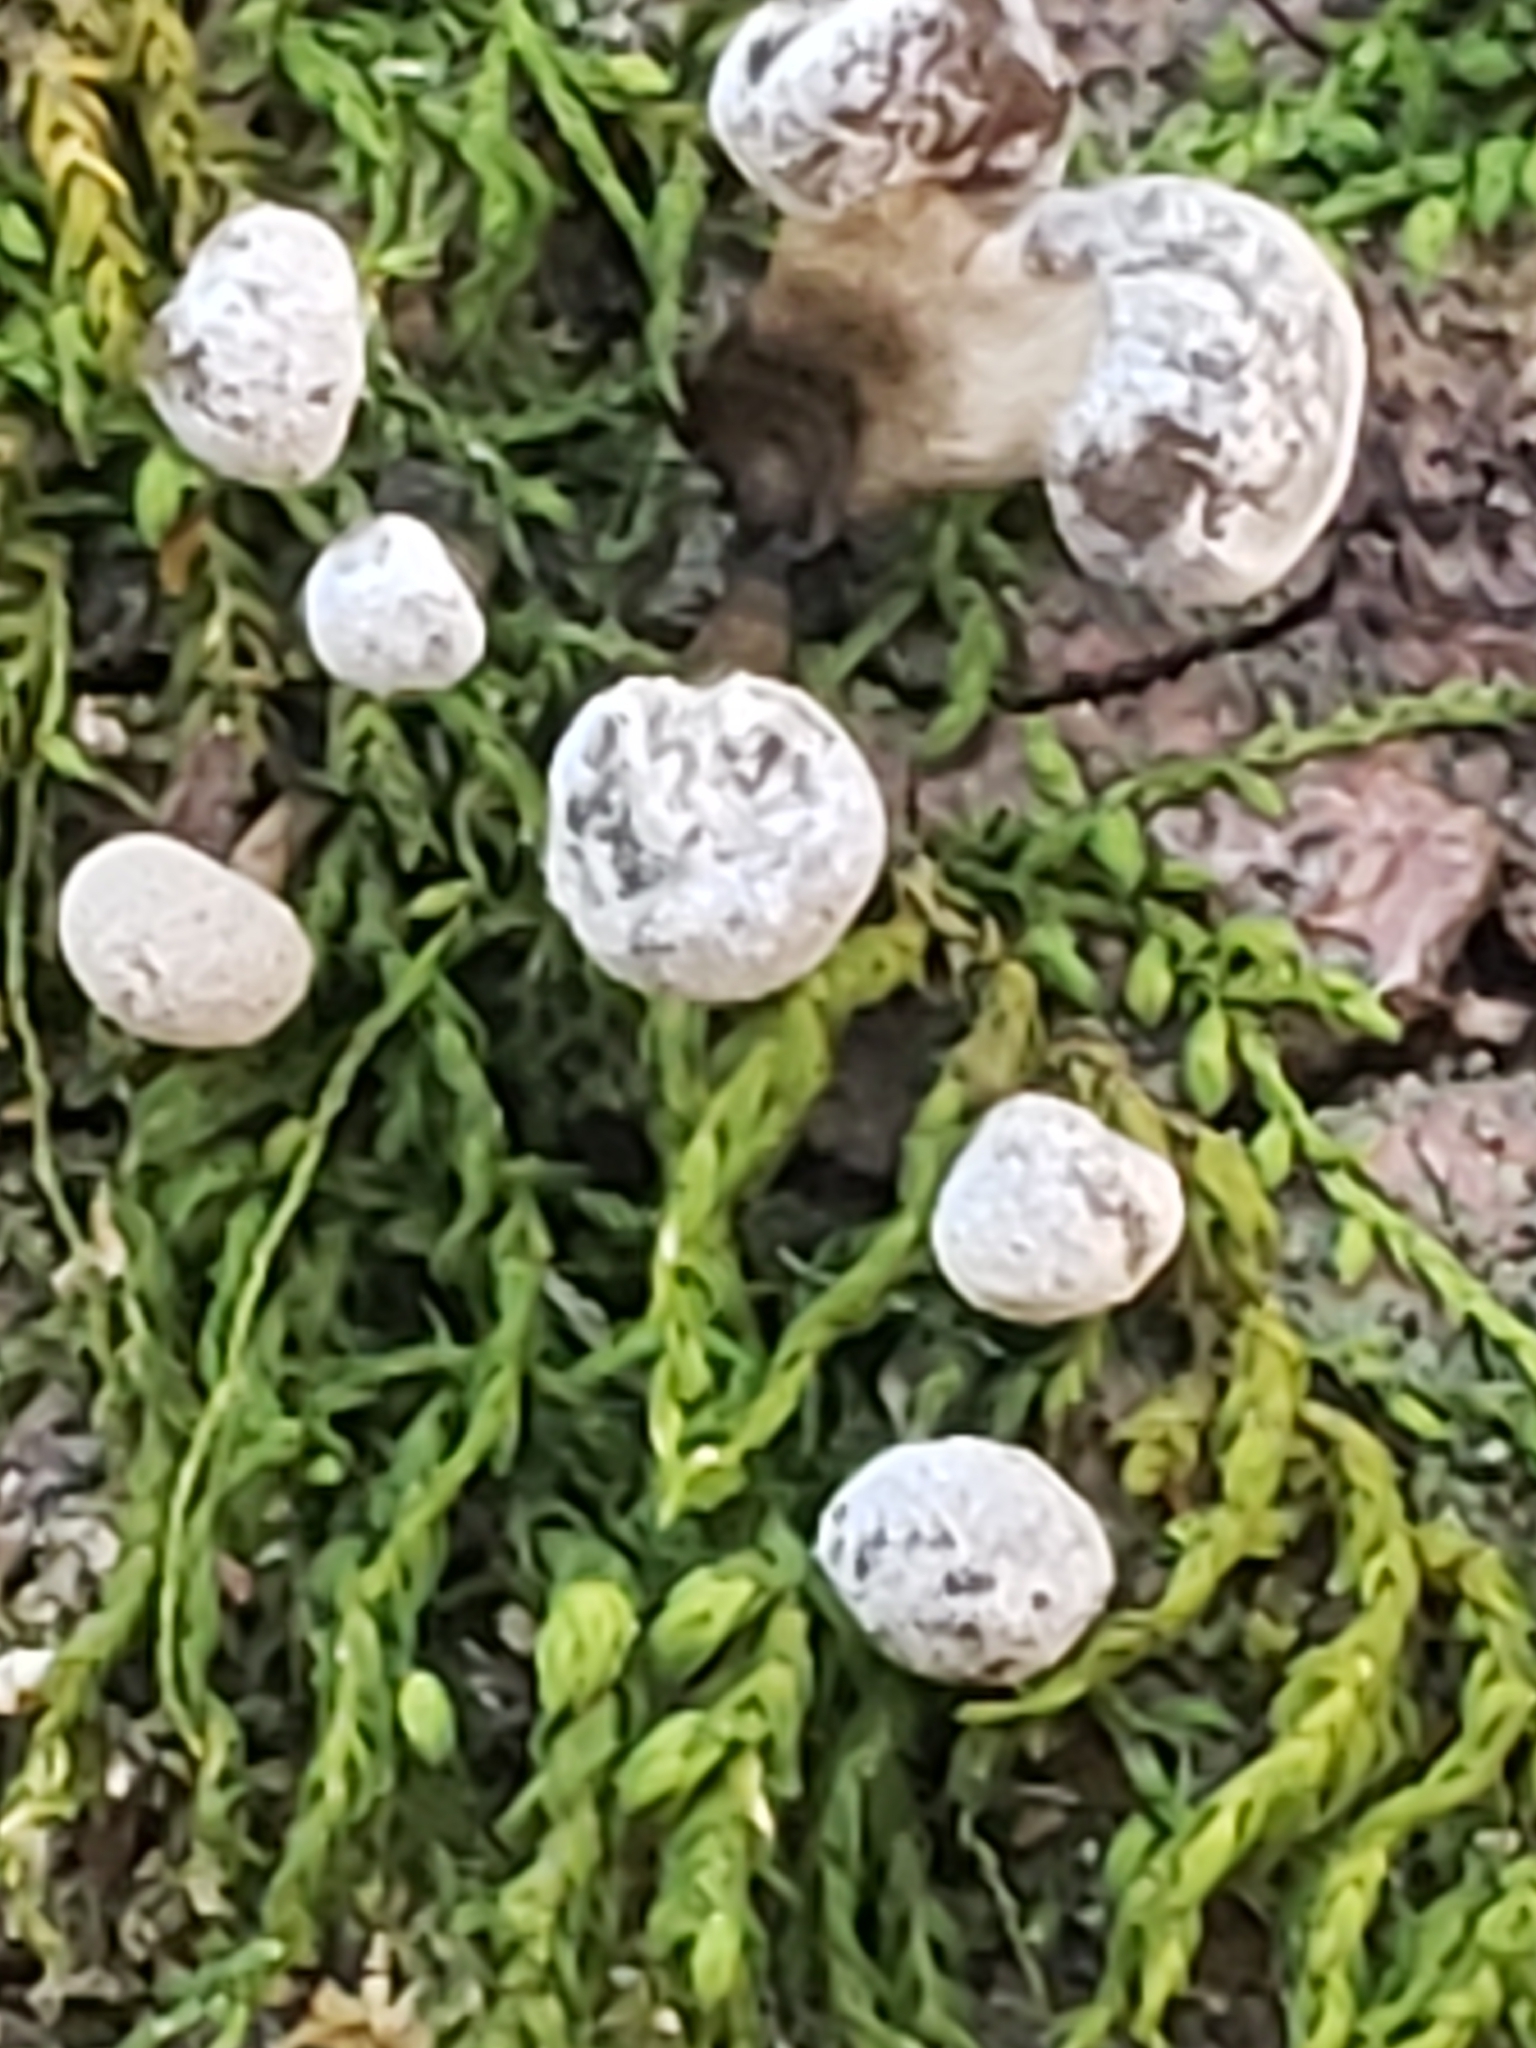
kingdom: Fungi
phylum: Basidiomycota
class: Atractiellomycetes
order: Atractiellales
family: Phleogenaceae
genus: Phleogena
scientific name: Phleogena faginea
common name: Fenugreek stalkball
